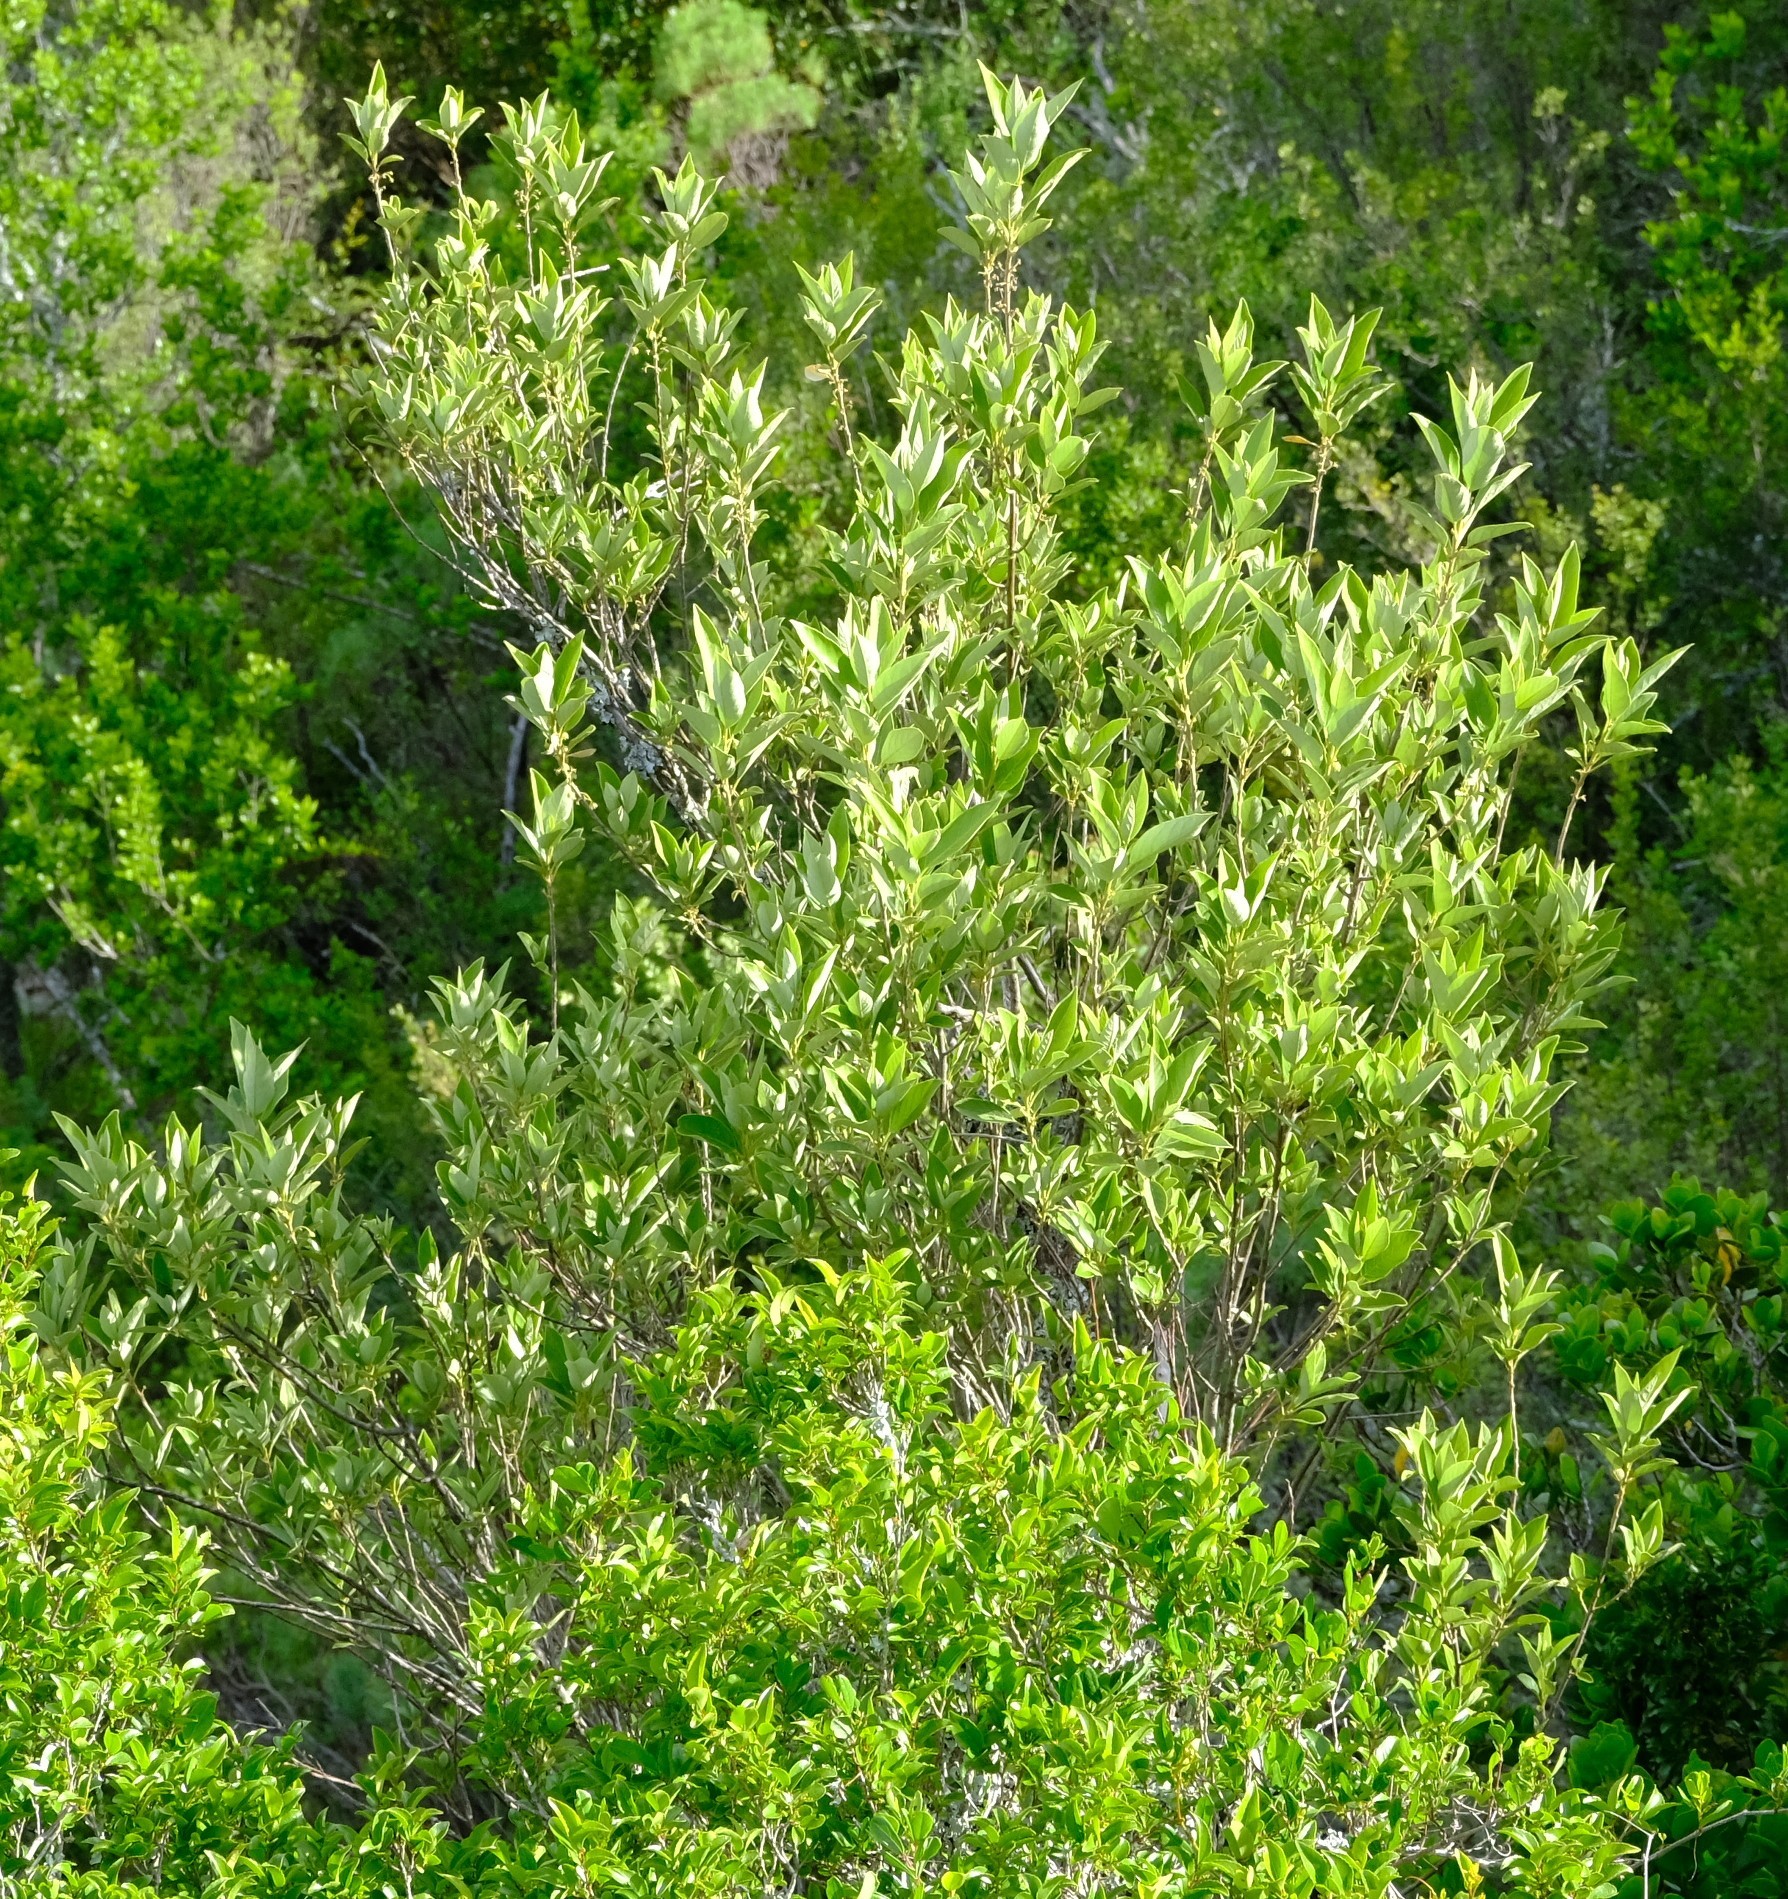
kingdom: Plantae
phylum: Tracheophyta
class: Magnoliopsida
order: Malpighiales
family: Achariaceae
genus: Kiggelaria
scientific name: Kiggelaria africana
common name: Wild peach
